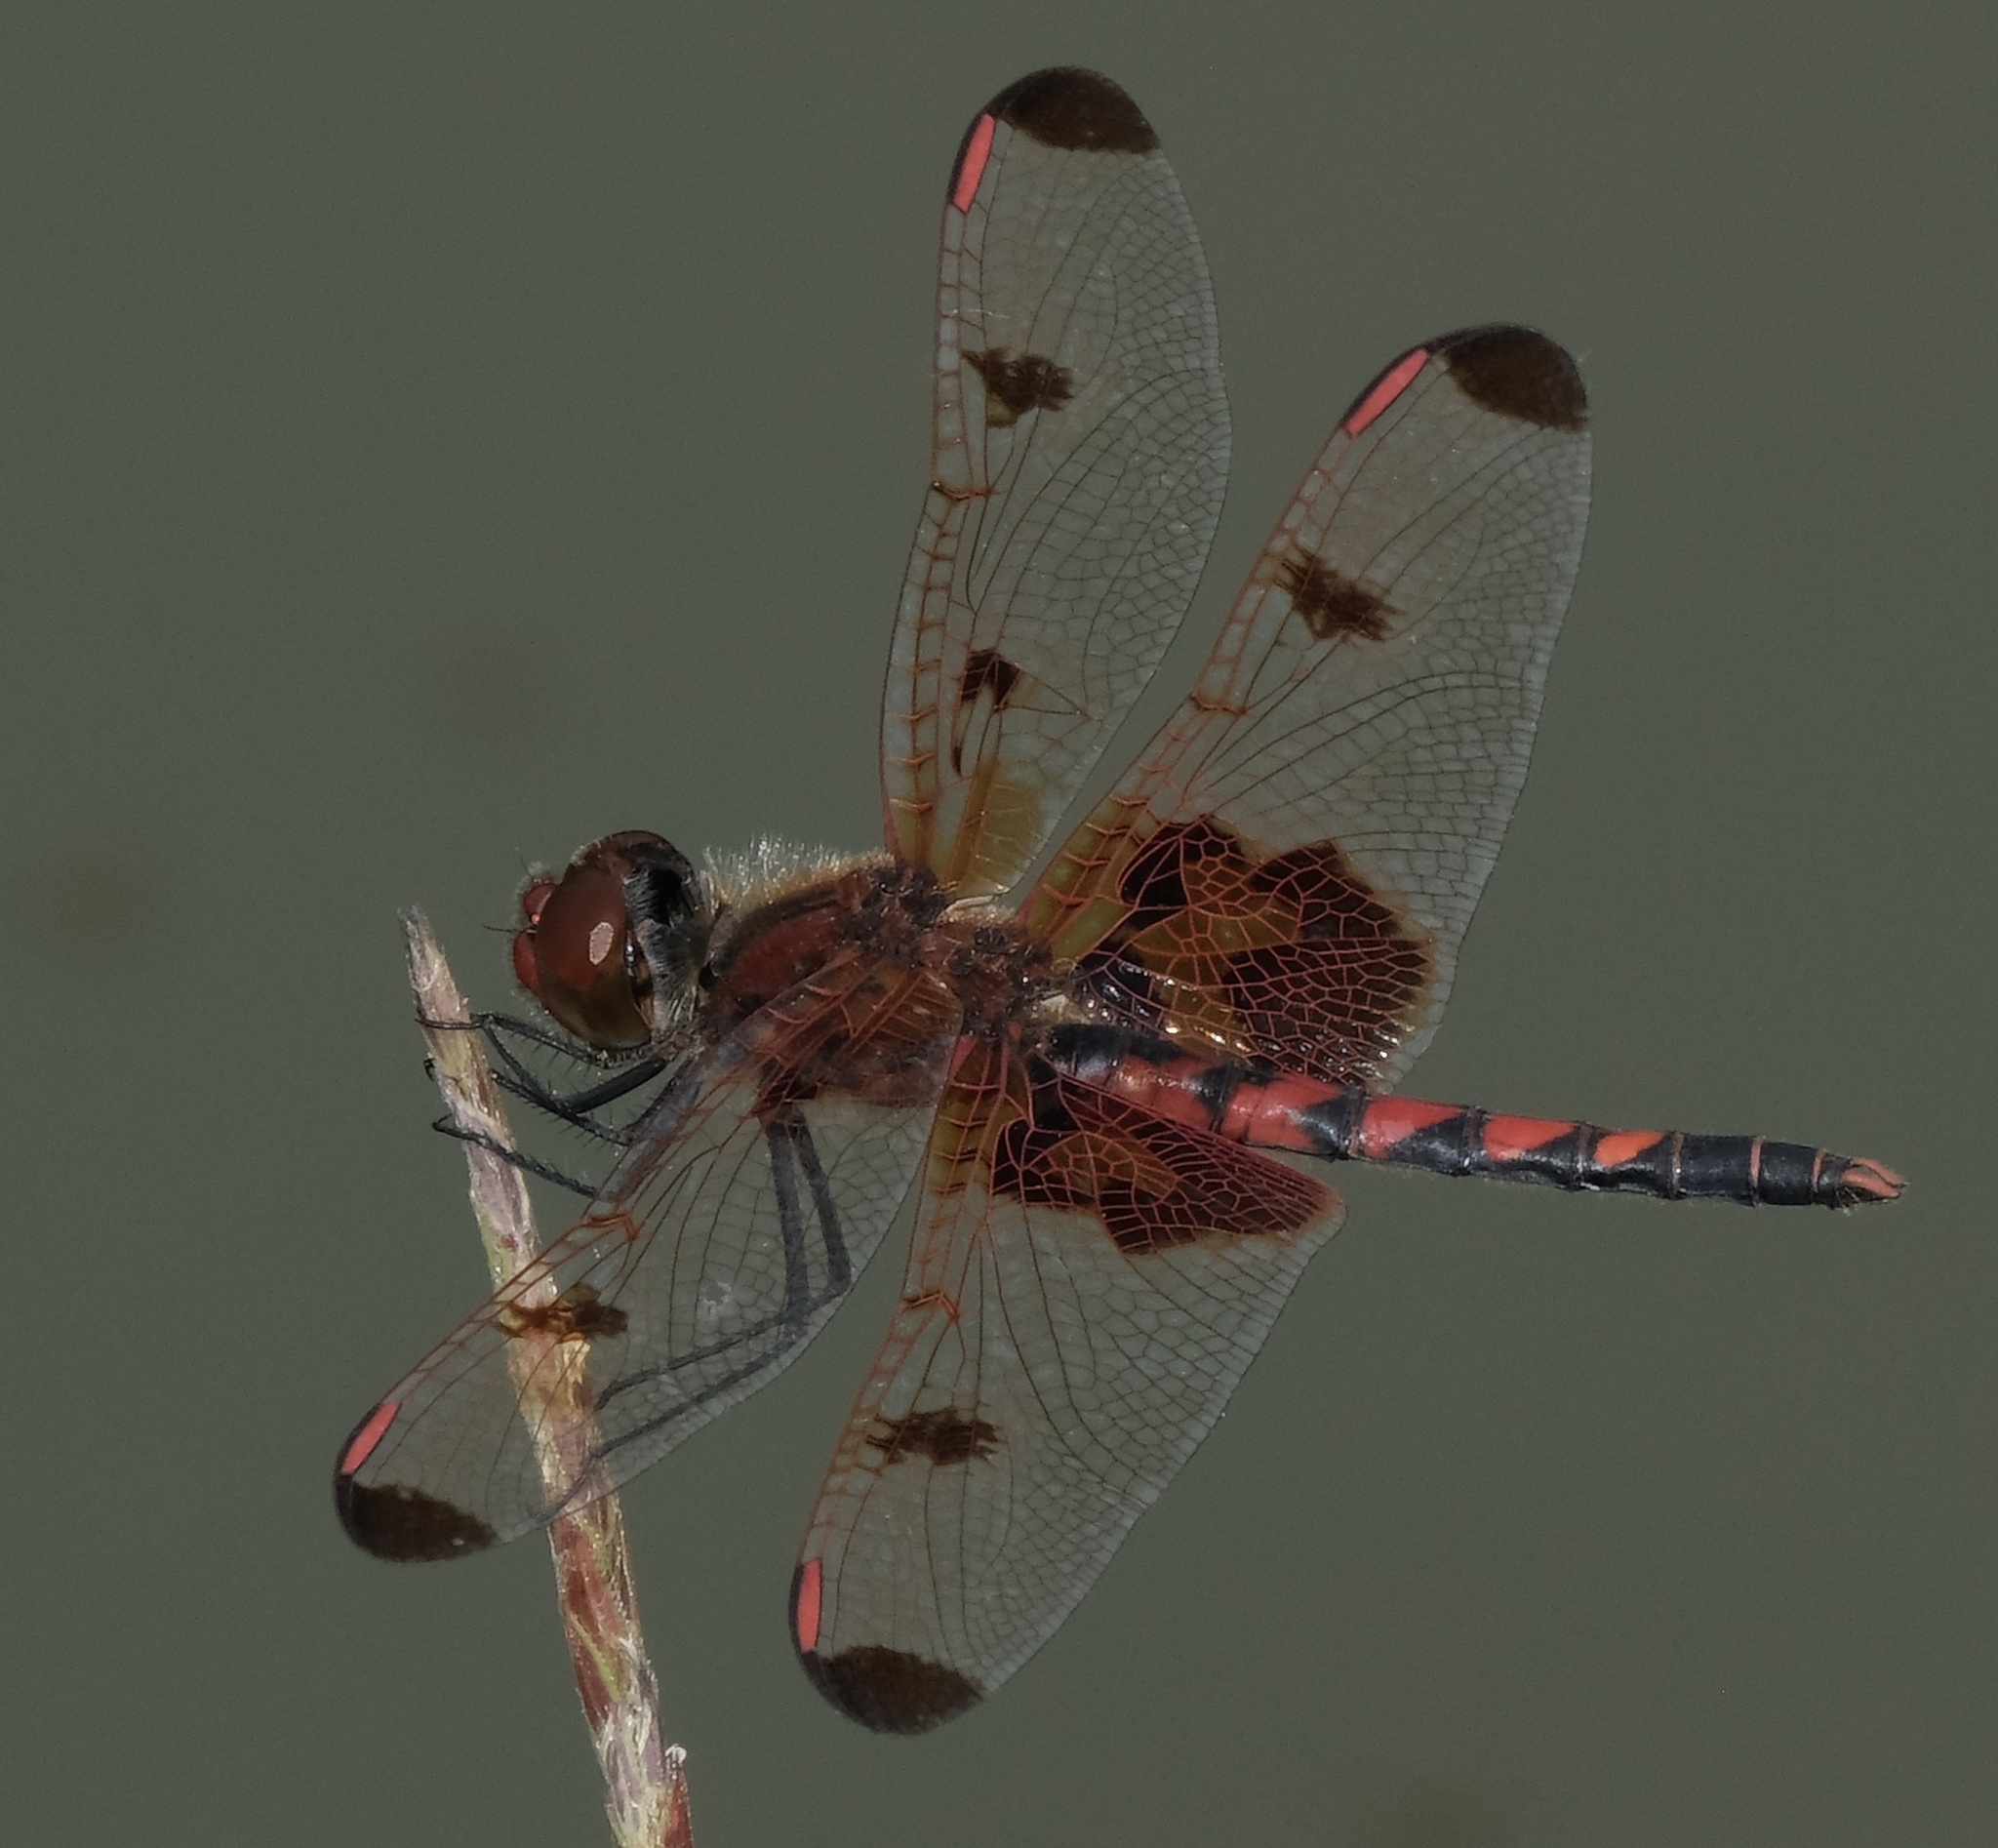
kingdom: Animalia
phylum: Arthropoda
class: Insecta
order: Odonata
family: Libellulidae
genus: Celithemis
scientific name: Celithemis elisa
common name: Calico pennant
